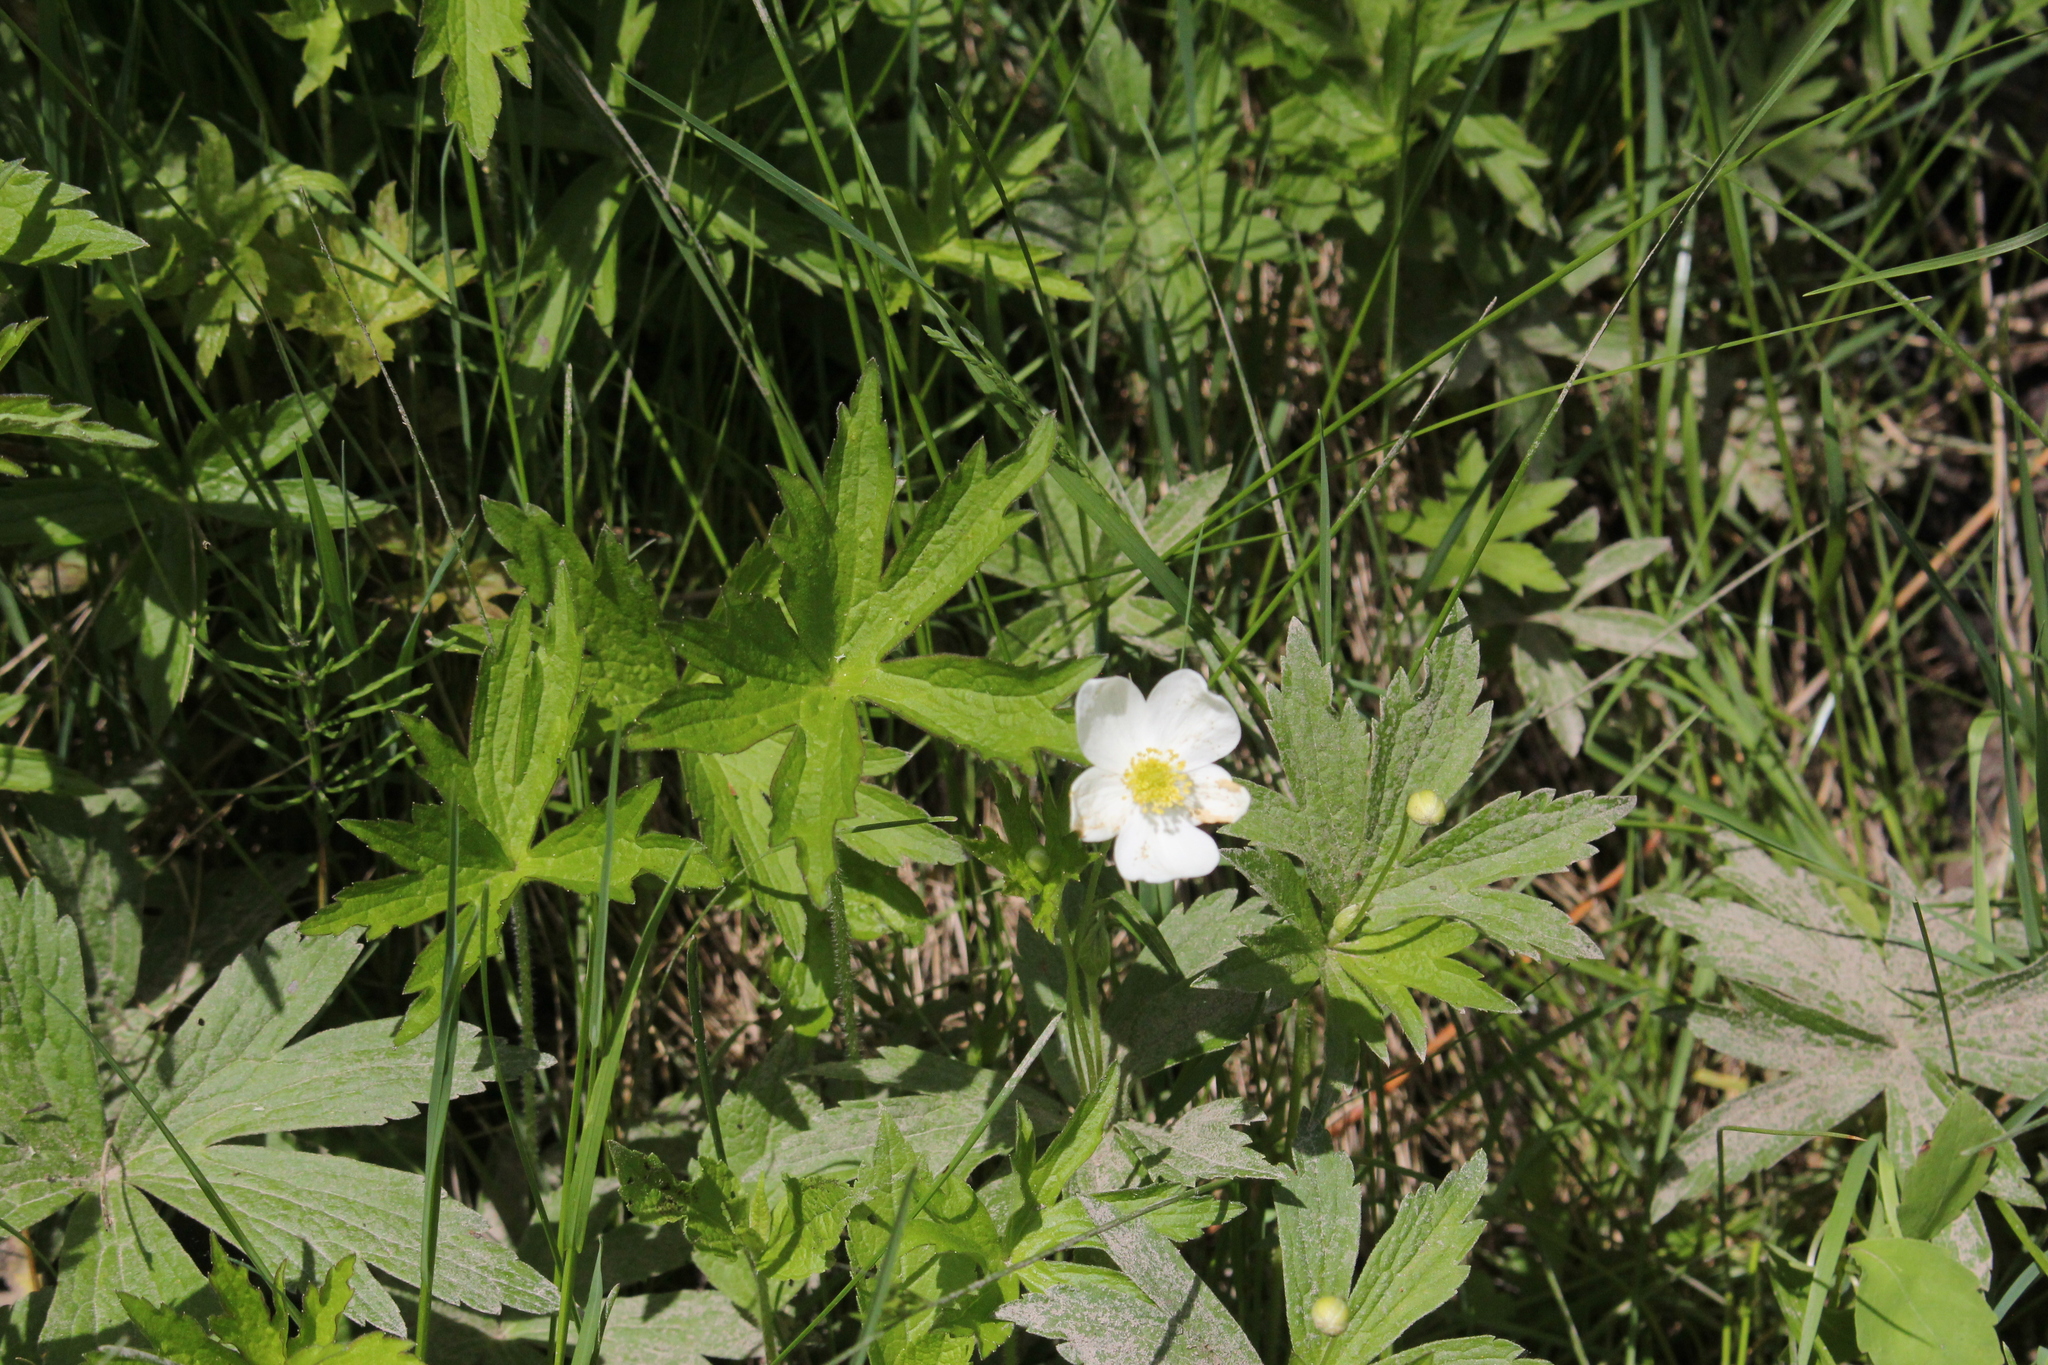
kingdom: Plantae
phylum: Tracheophyta
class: Magnoliopsida
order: Ranunculales
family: Ranunculaceae
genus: Anemonastrum
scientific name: Anemonastrum canadense
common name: Canada anemone
